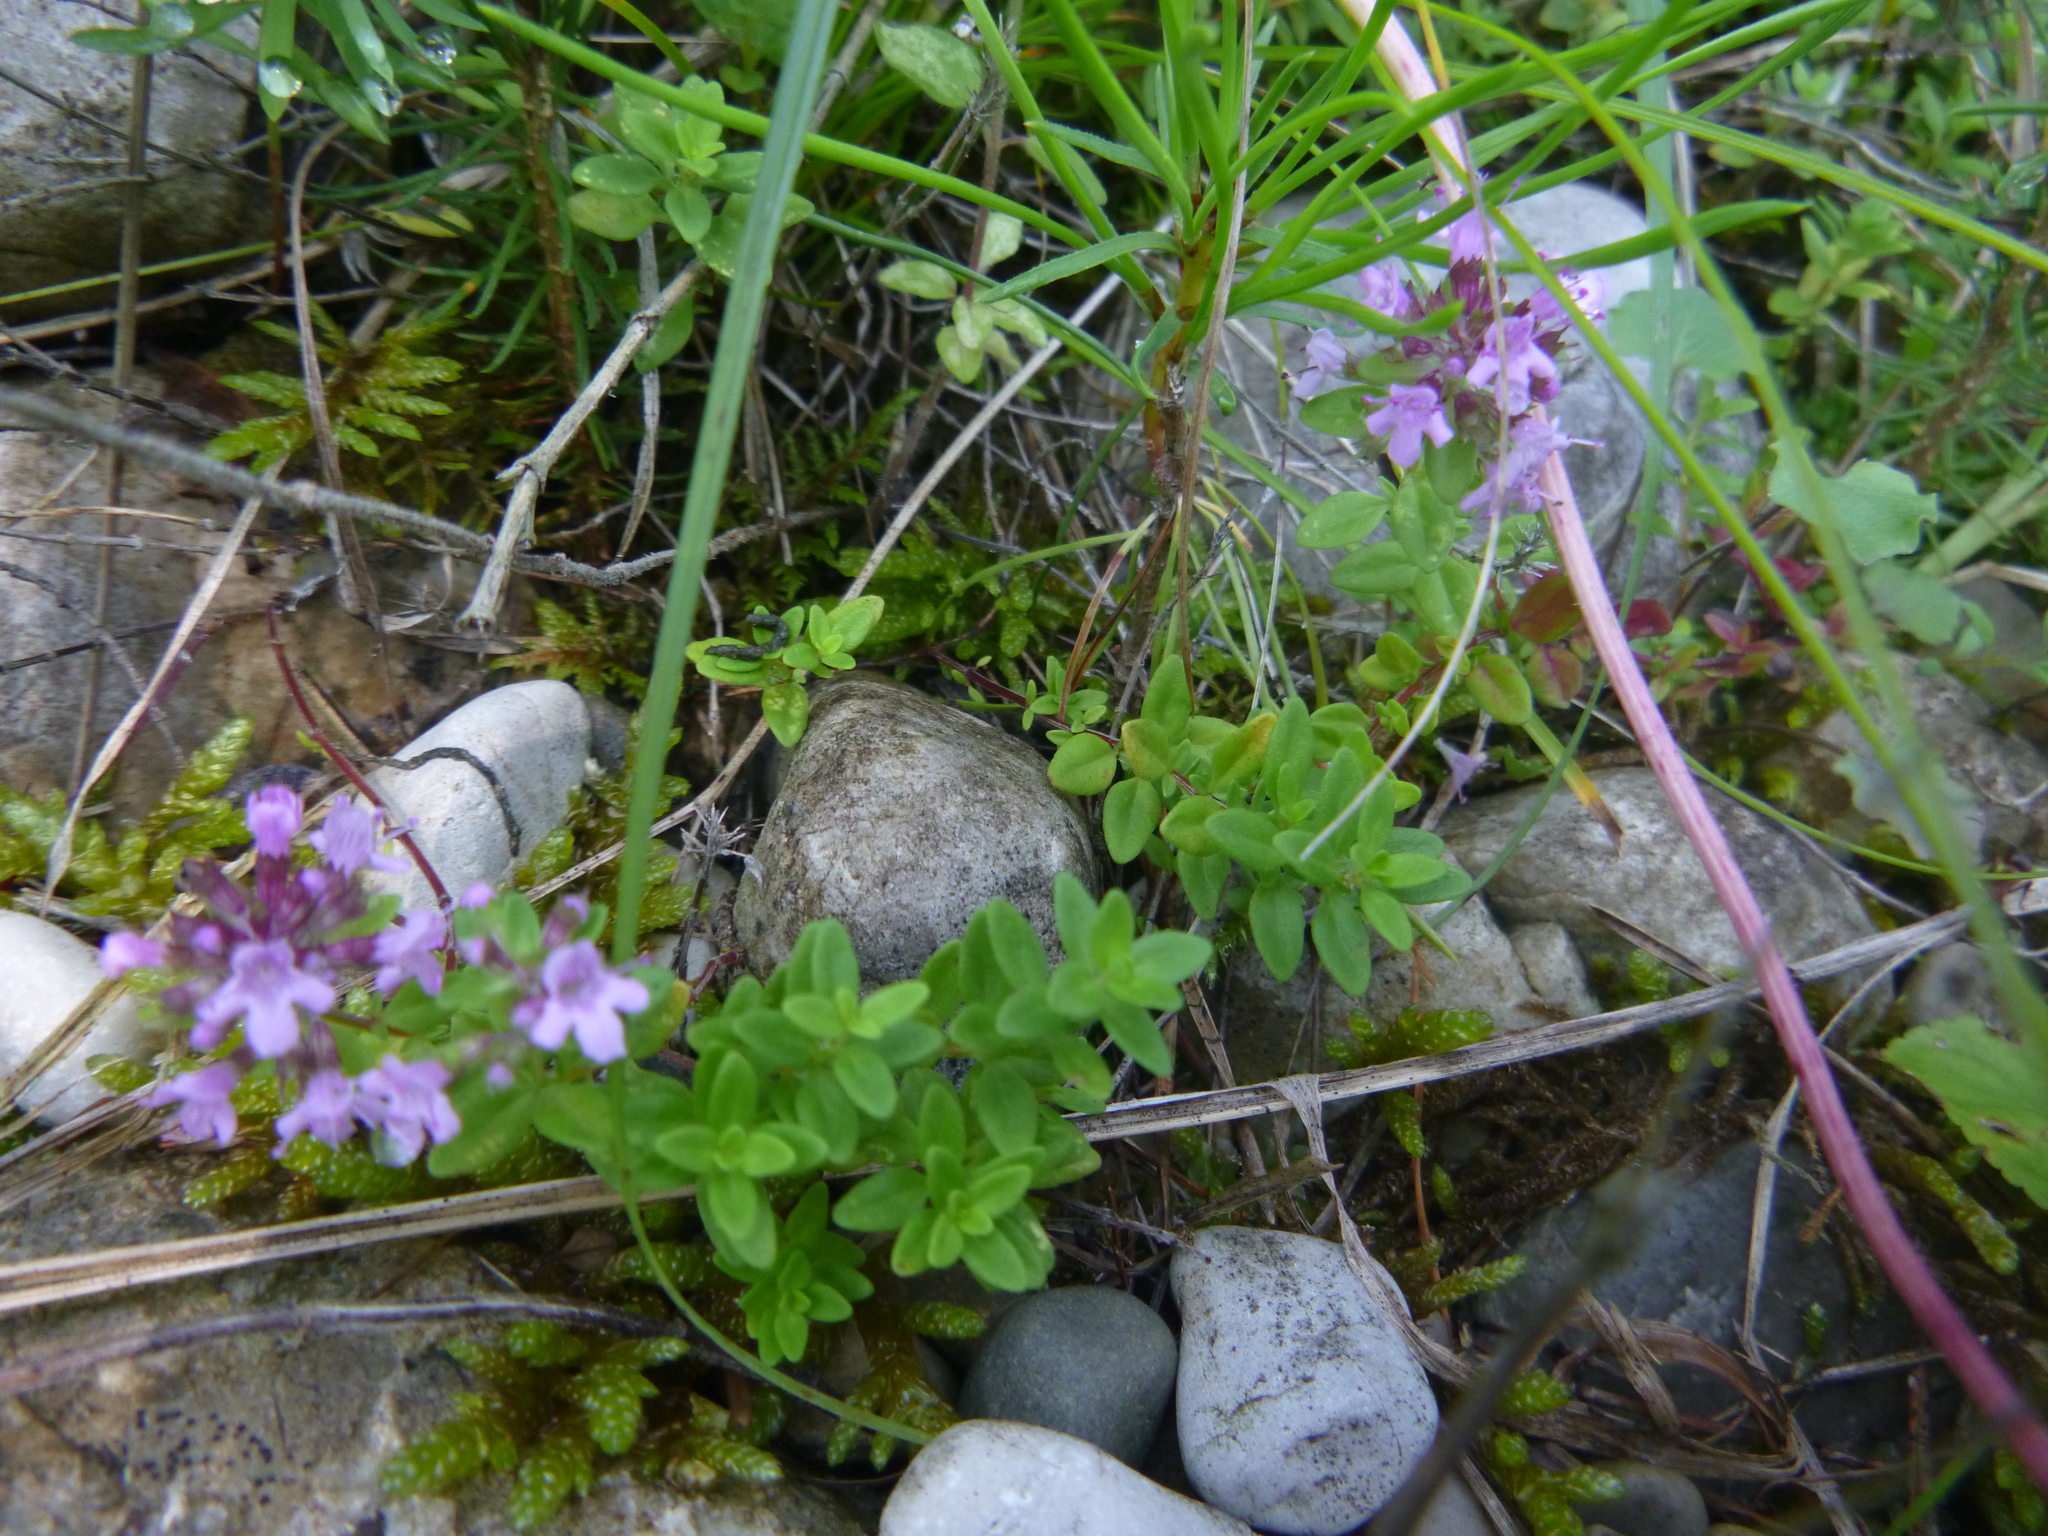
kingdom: Plantae
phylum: Tracheophyta
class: Magnoliopsida
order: Lamiales
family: Lamiaceae
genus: Thymus
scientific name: Thymus pulegioides
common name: Large thyme
